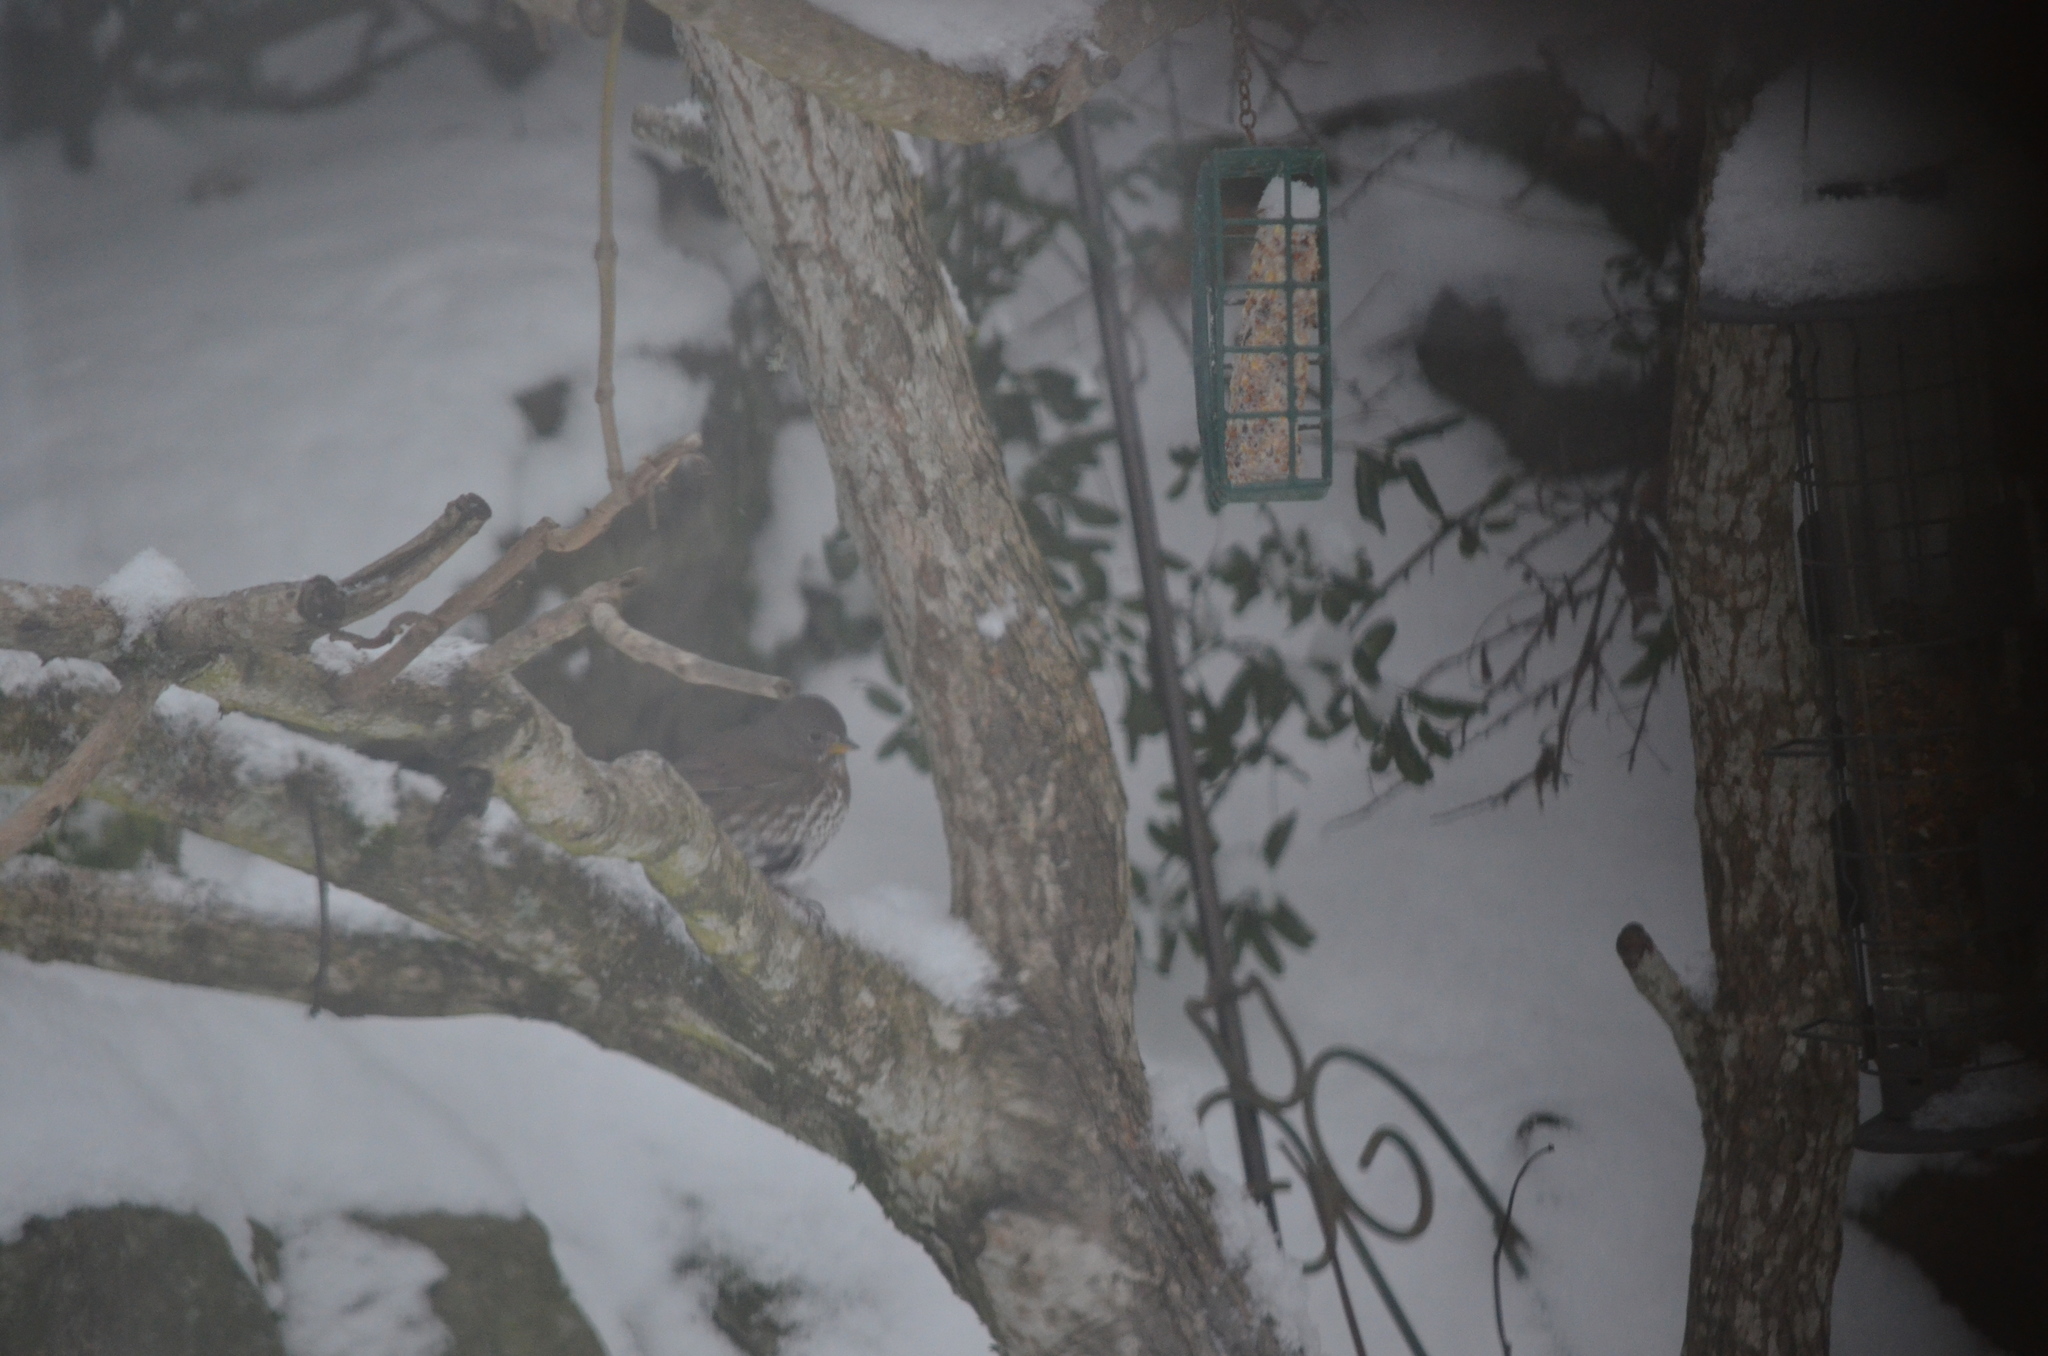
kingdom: Animalia
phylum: Chordata
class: Aves
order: Passeriformes
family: Passerellidae
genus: Passerella
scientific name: Passerella iliaca
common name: Fox sparrow
